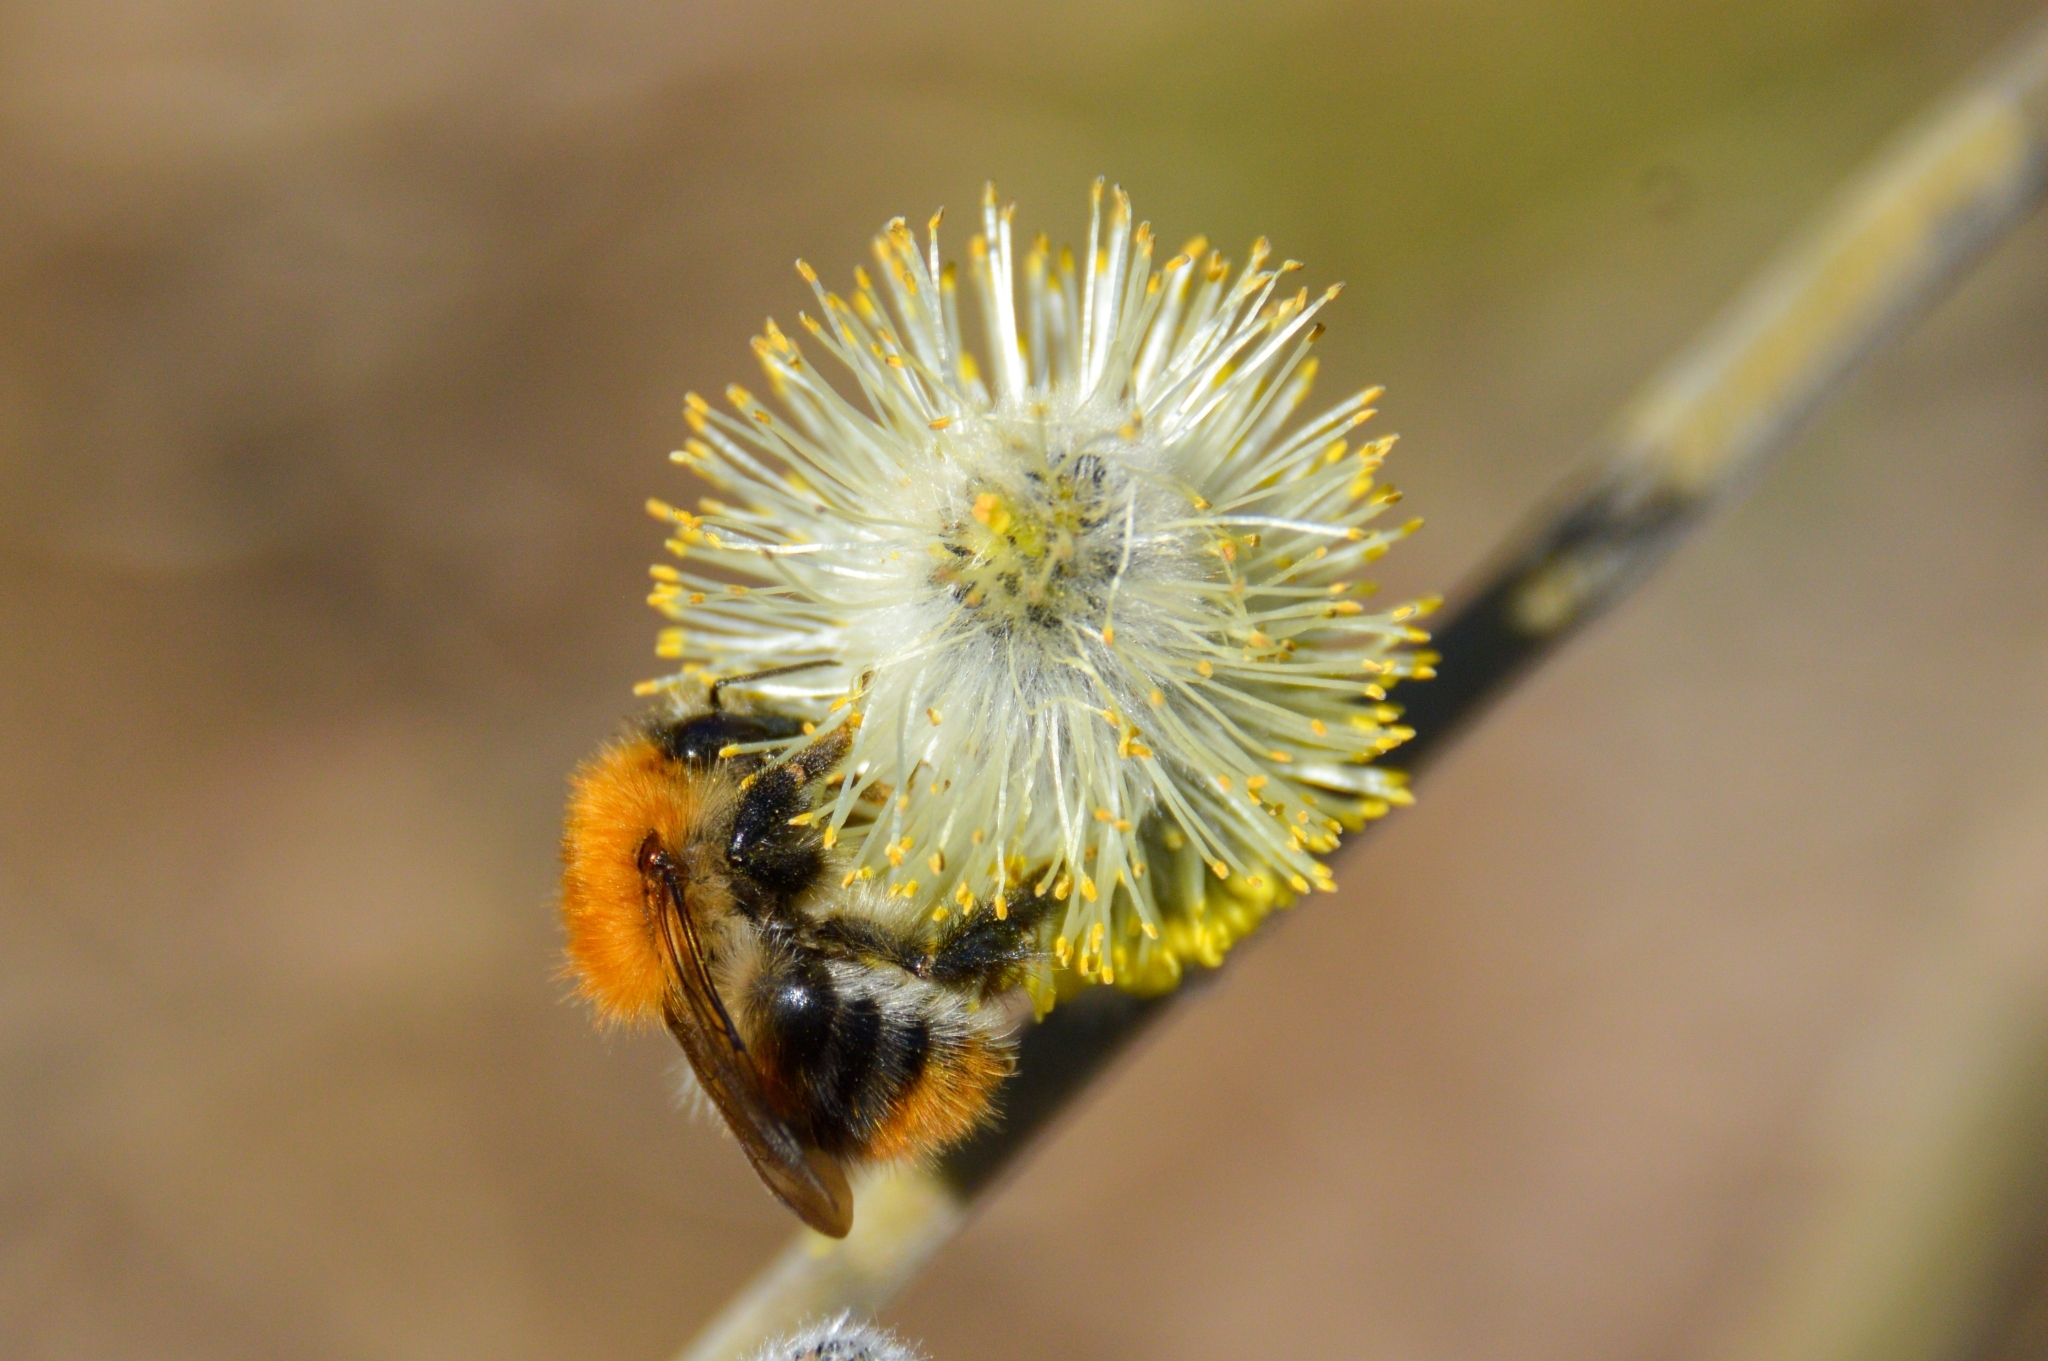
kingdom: Animalia
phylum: Arthropoda
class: Insecta
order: Hymenoptera
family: Apidae
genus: Bombus
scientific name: Bombus pascuorum
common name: Common carder bee
